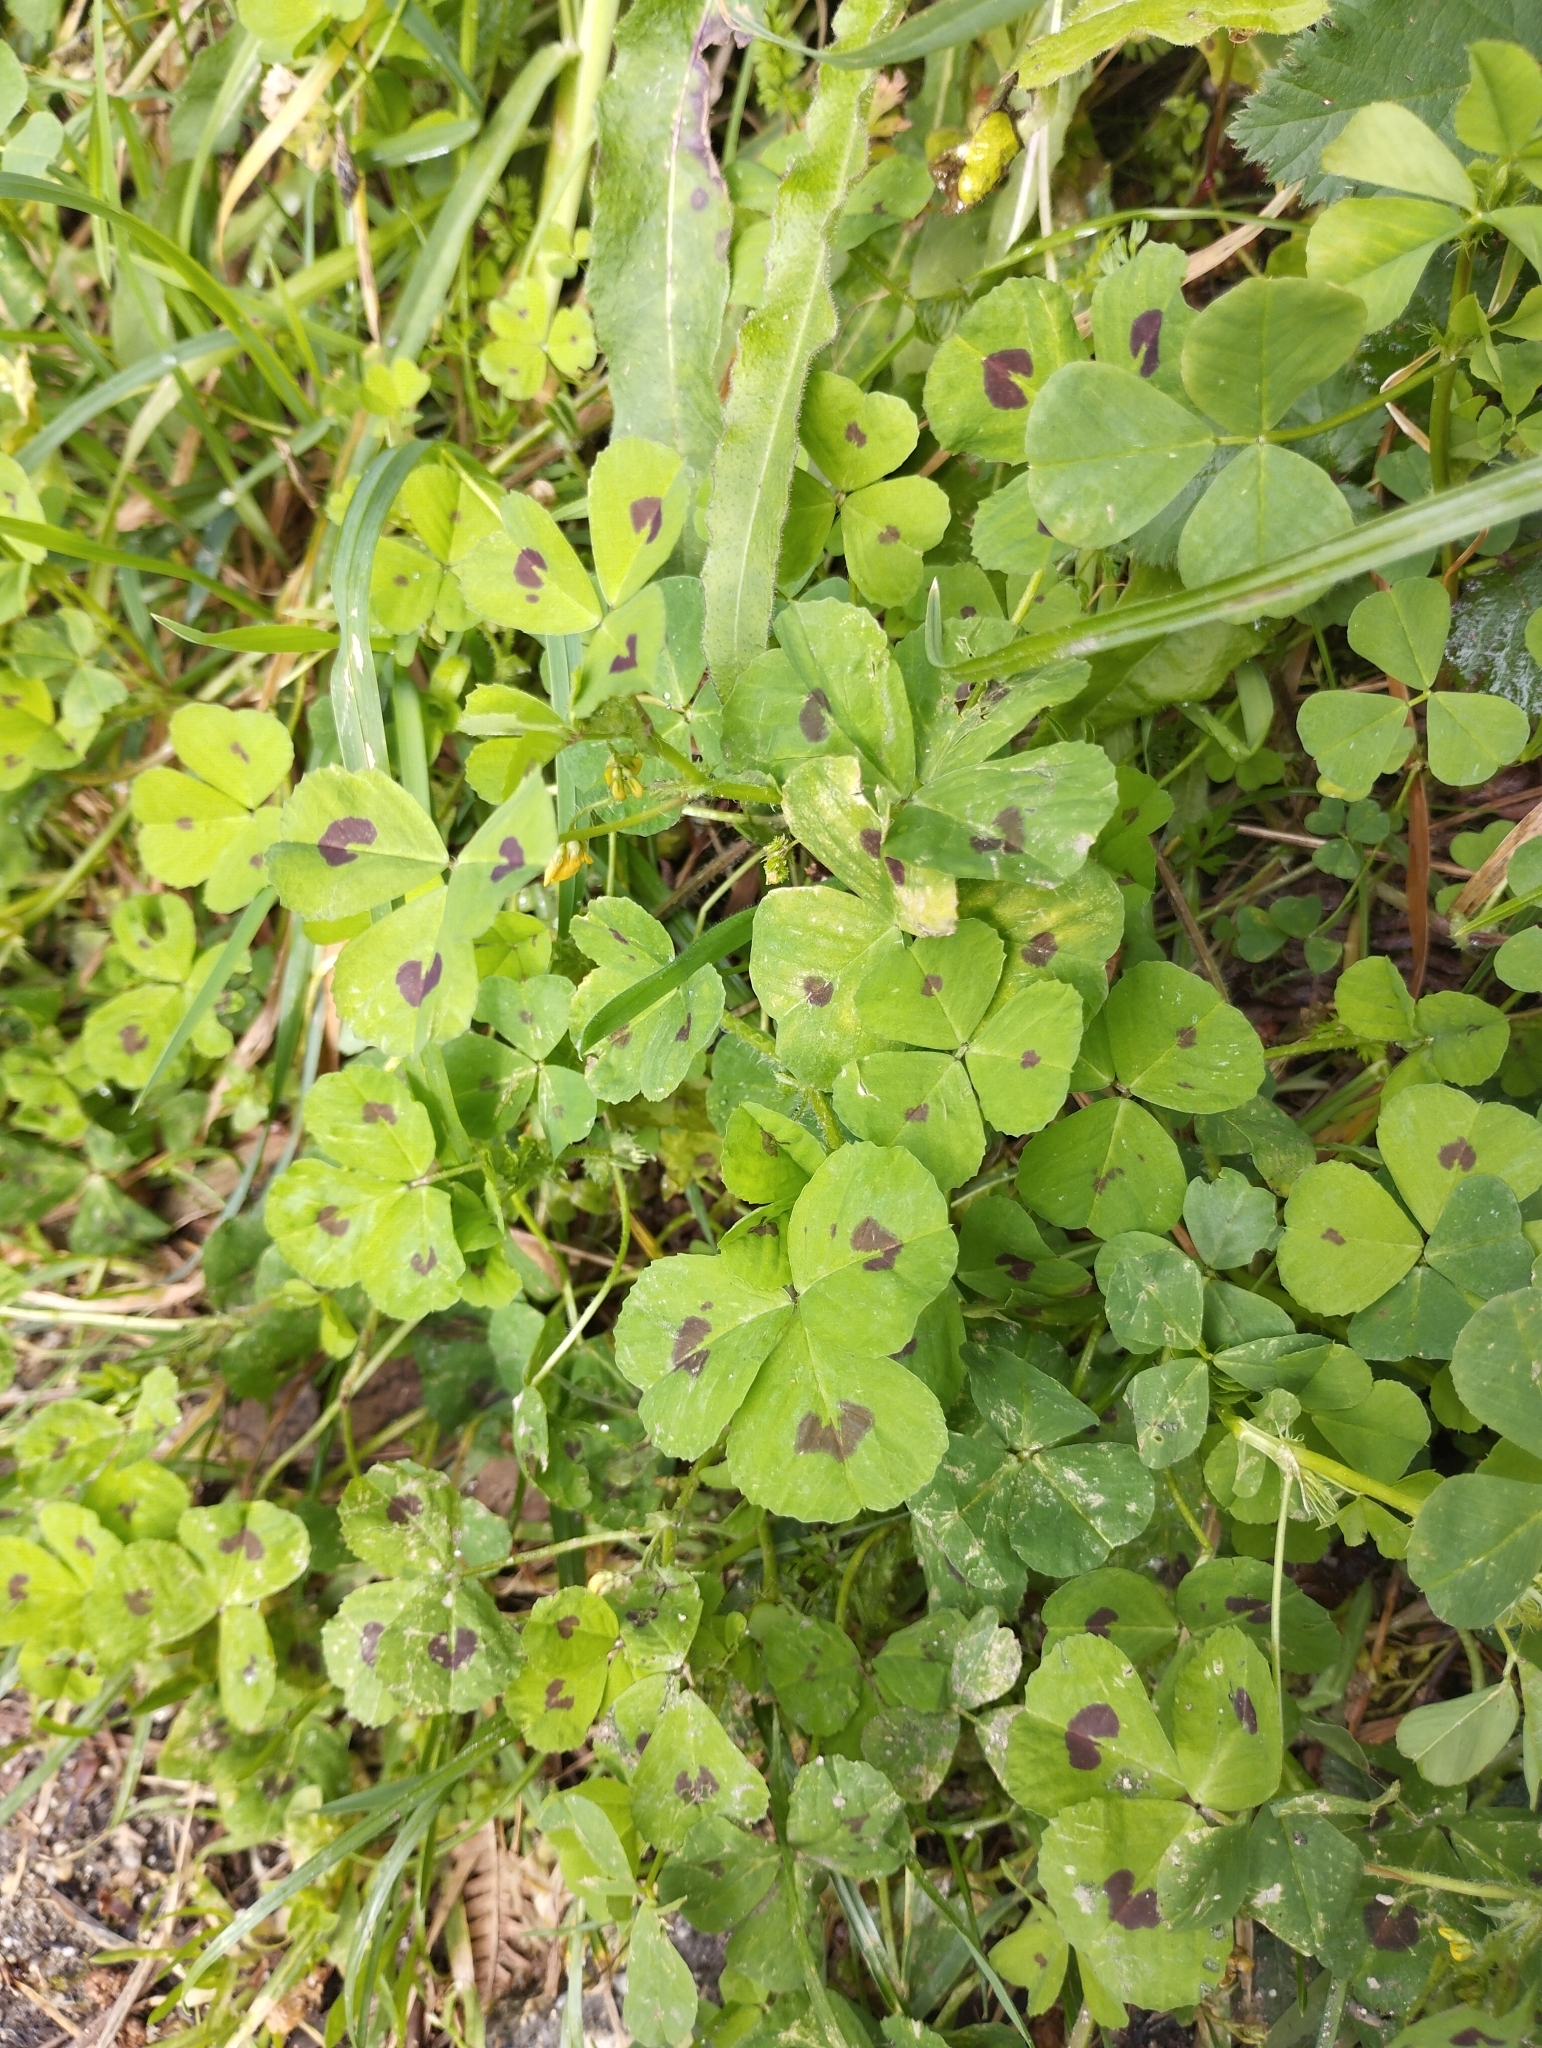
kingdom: Plantae
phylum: Tracheophyta
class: Magnoliopsida
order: Fabales
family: Fabaceae
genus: Medicago
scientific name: Medicago arabica
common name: Spotted medick
